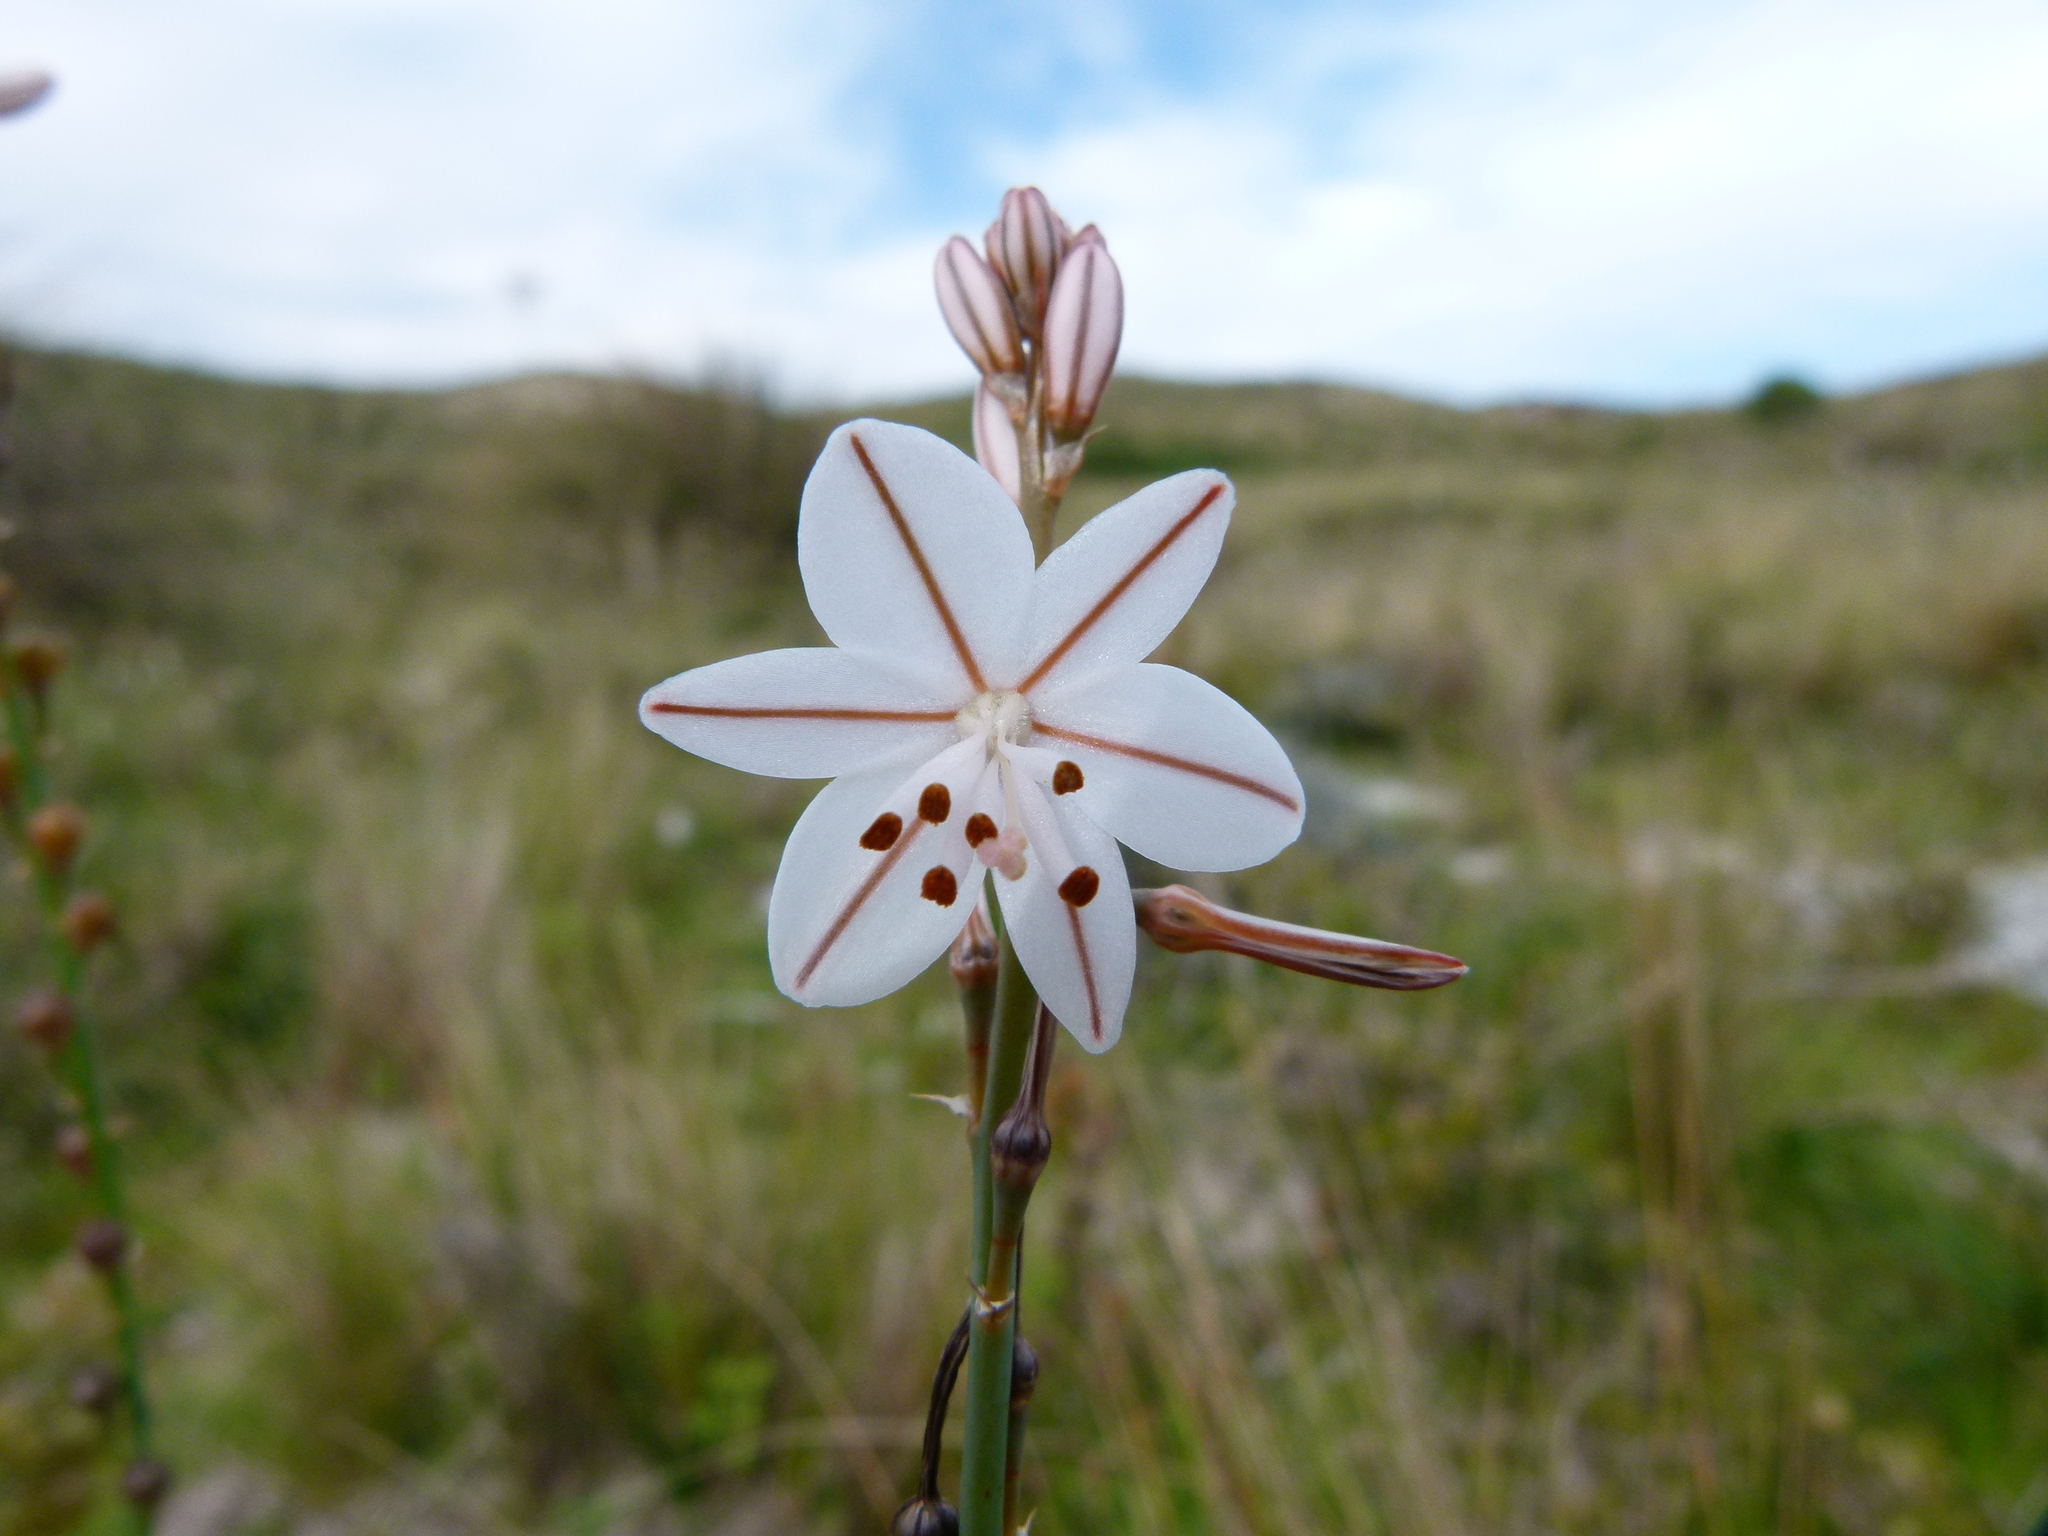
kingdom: Plantae
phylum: Tracheophyta
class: Liliopsida
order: Asparagales
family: Asphodelaceae
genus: Asphodelus
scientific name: Asphodelus fistulosus
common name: Onionweed
